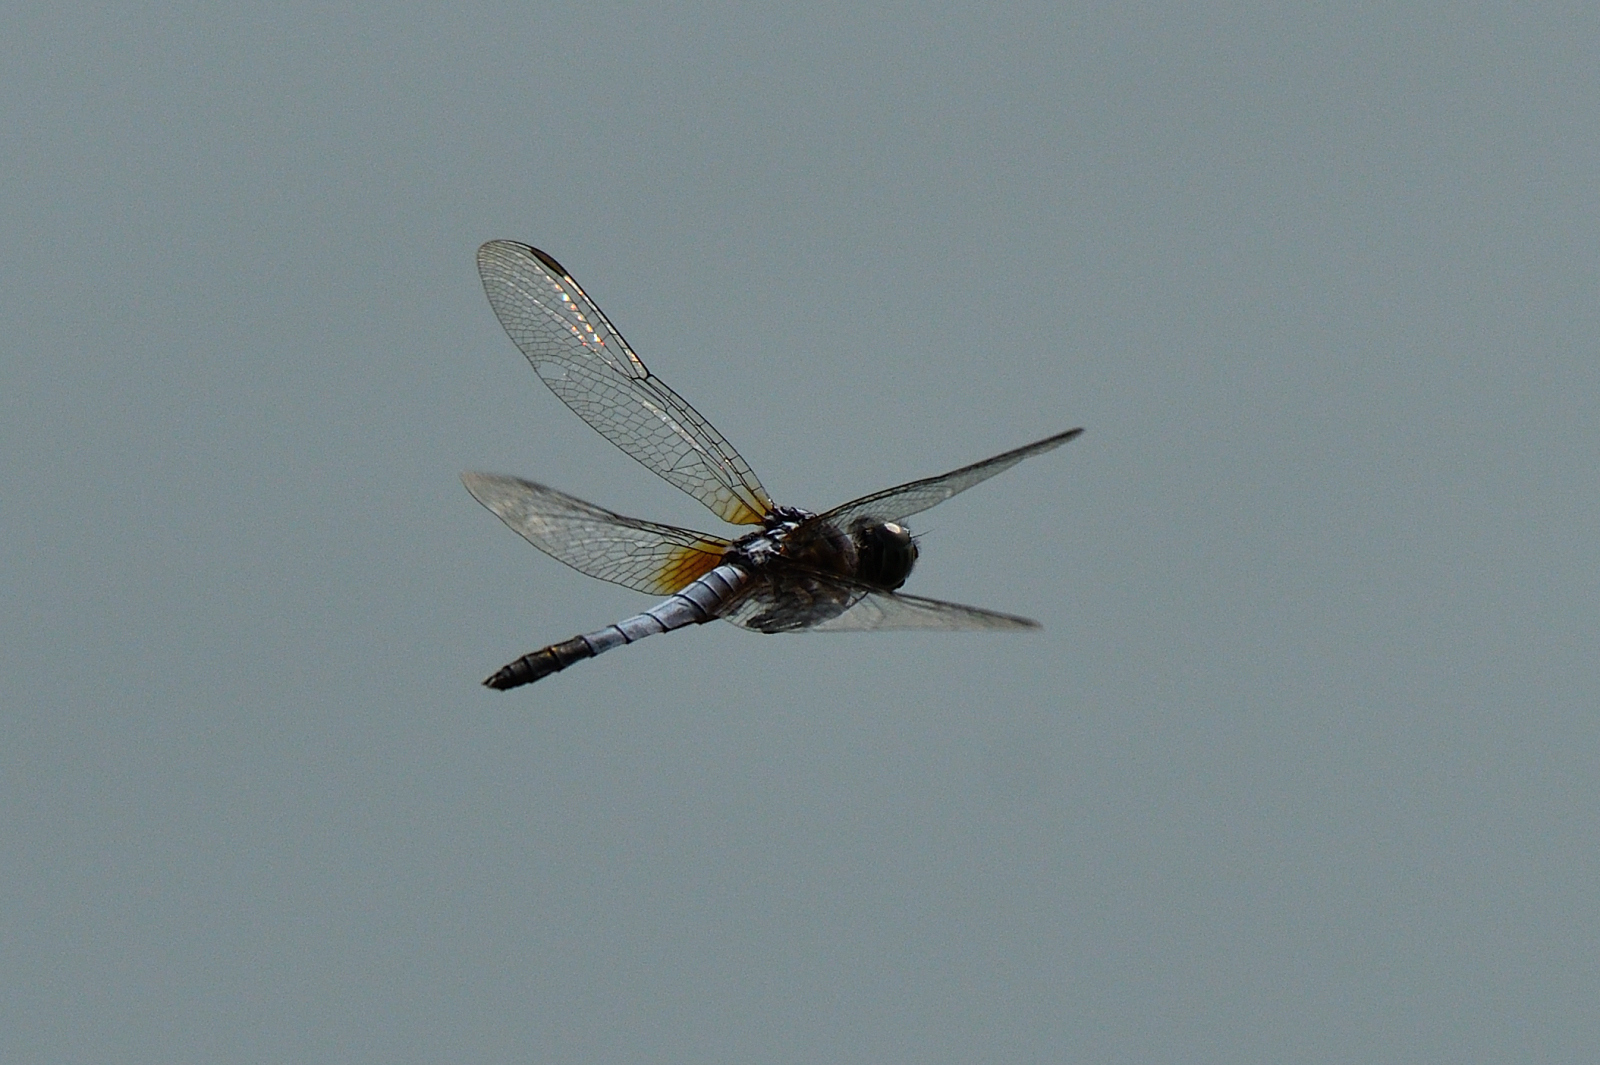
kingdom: Animalia
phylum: Arthropoda
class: Insecta
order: Odonata
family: Libellulidae
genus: Brachydiplax
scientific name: Brachydiplax chalybea
